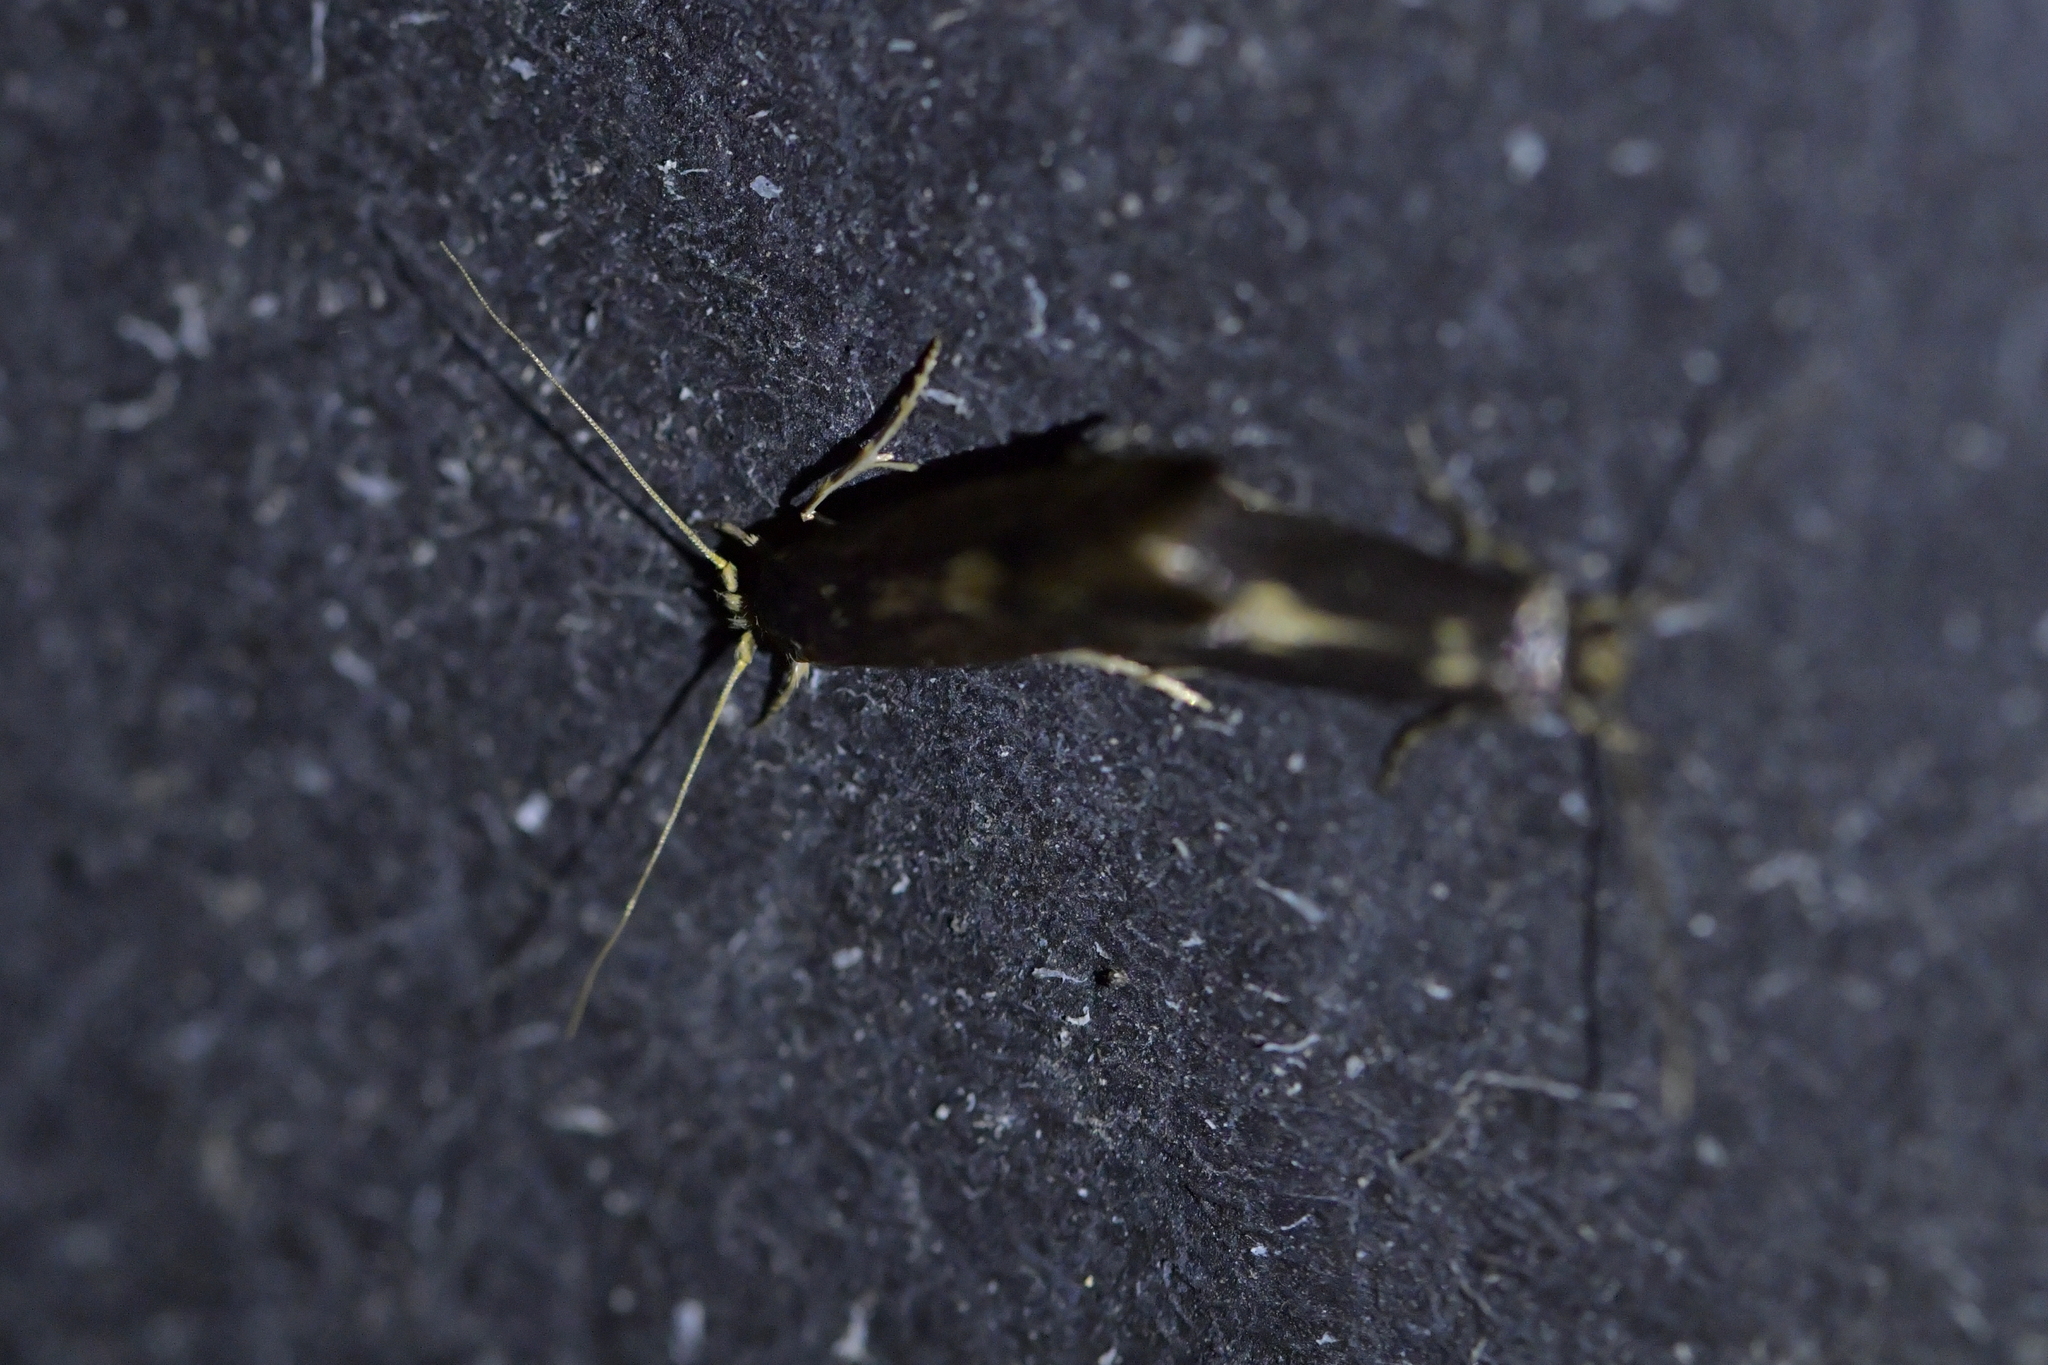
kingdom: Animalia
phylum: Arthropoda
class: Insecta
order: Lepidoptera
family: Tineidae
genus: Opogona
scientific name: Opogona omoscopa
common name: Moth
